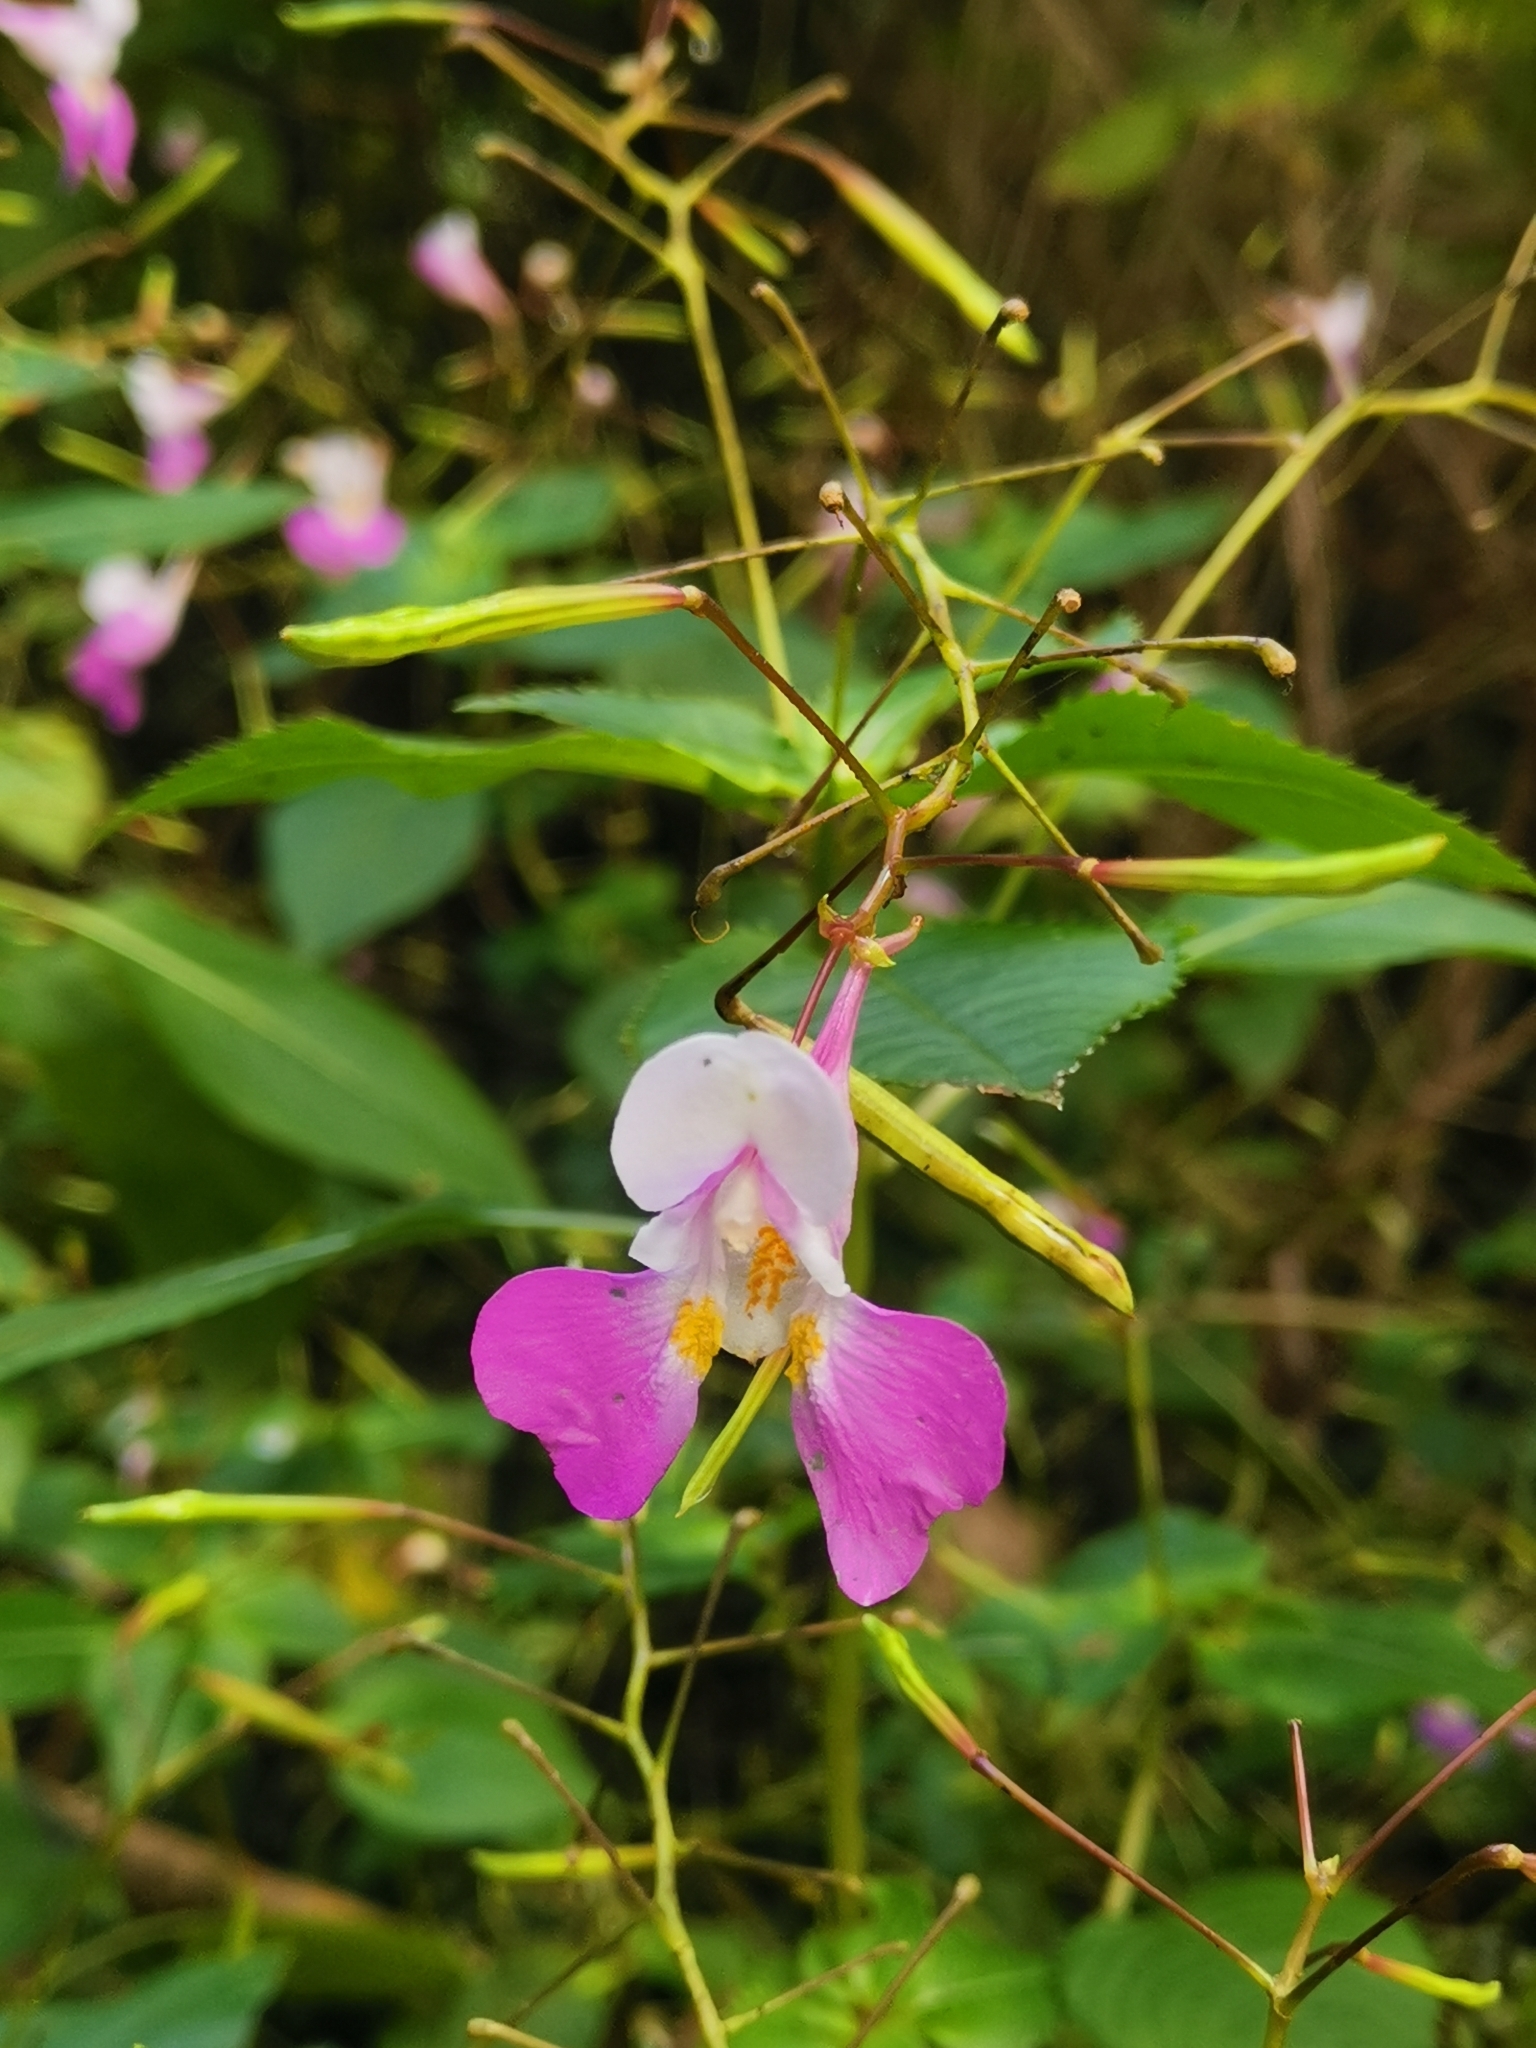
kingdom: Plantae
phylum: Tracheophyta
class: Magnoliopsida
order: Ericales
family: Balsaminaceae
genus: Impatiens
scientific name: Impatiens balfourii
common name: Balfour's touch-me-not
